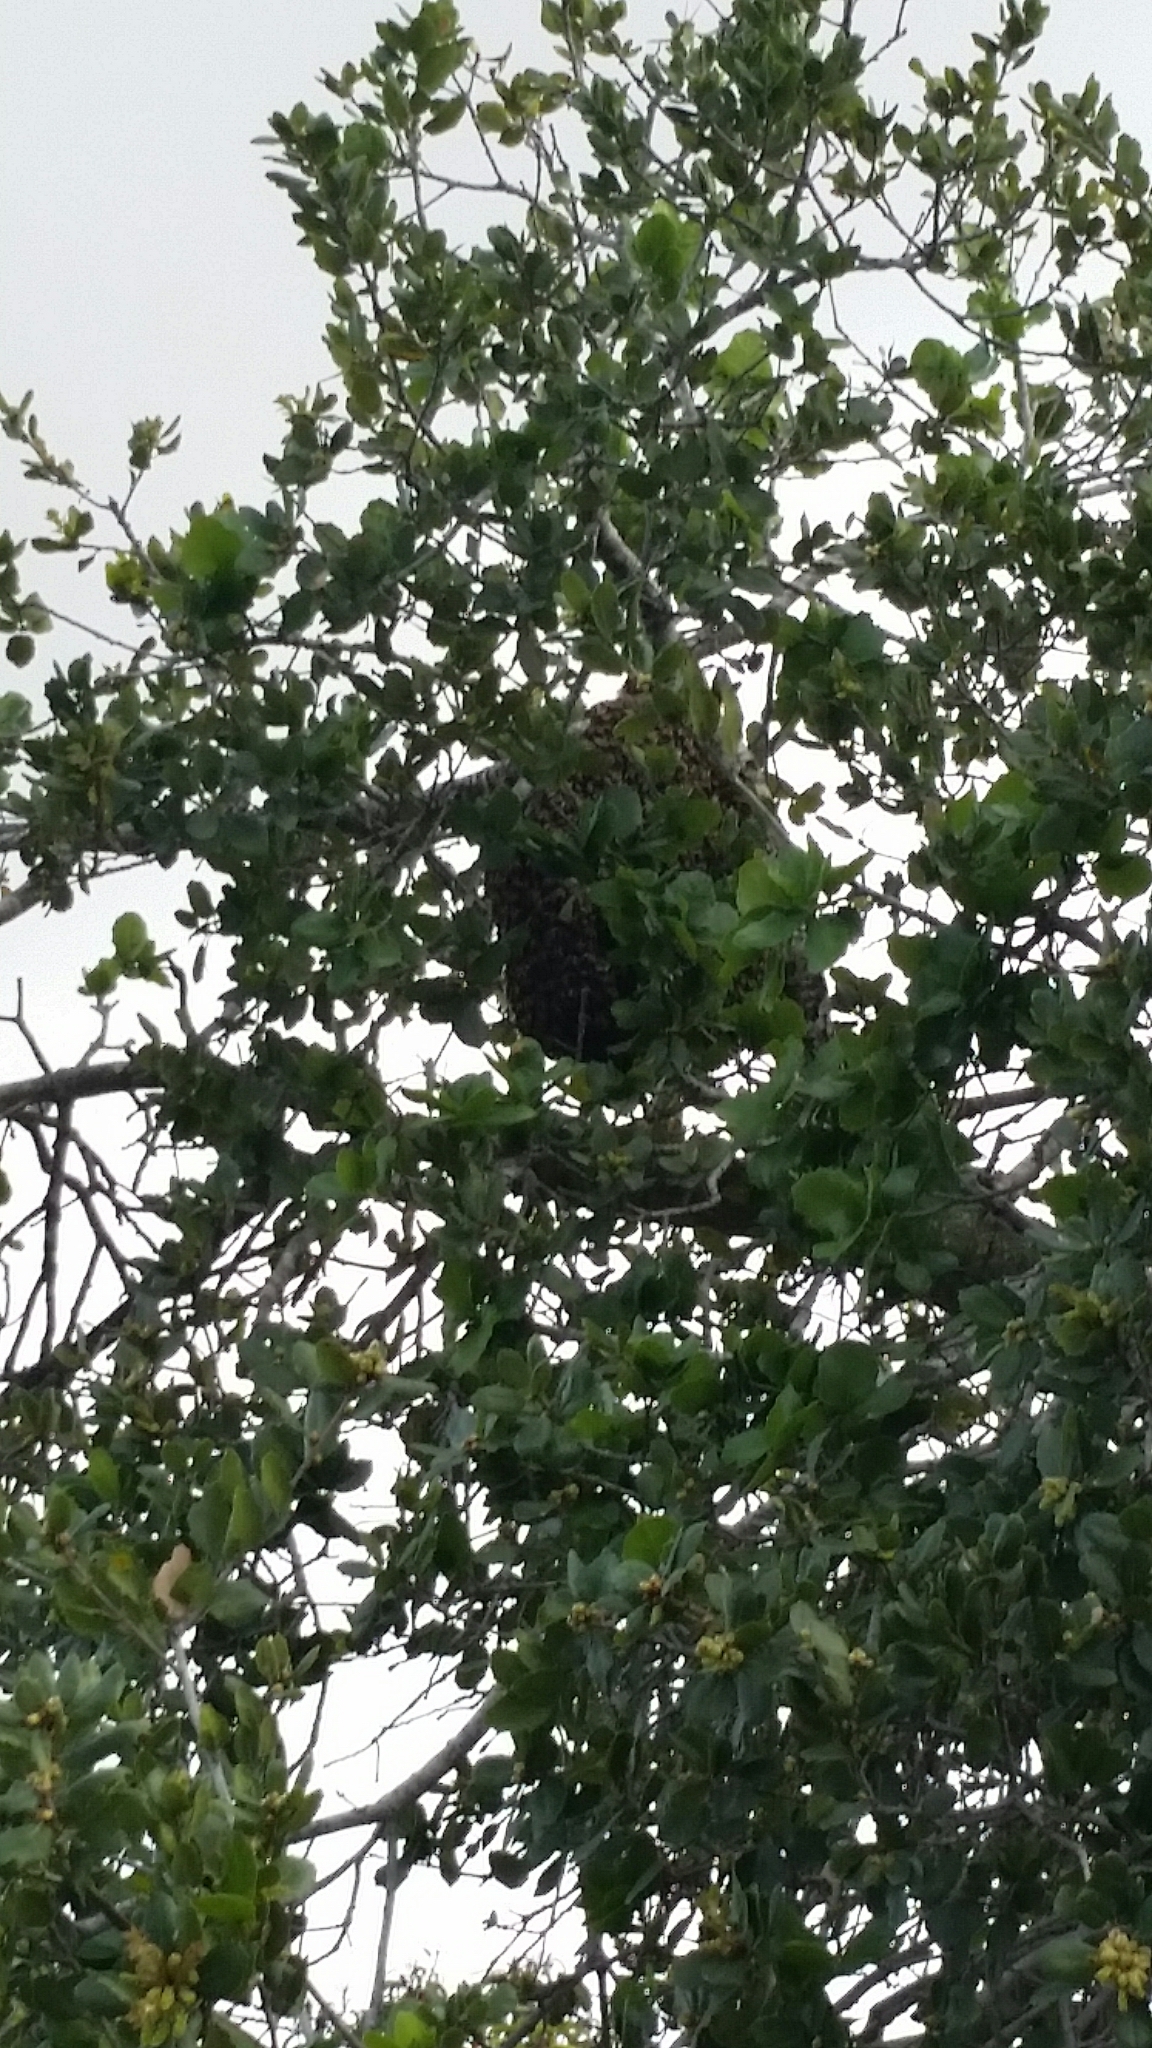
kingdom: Animalia
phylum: Arthropoda
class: Insecta
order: Hymenoptera
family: Apidae
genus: Apis
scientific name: Apis mellifera
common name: Honey bee
